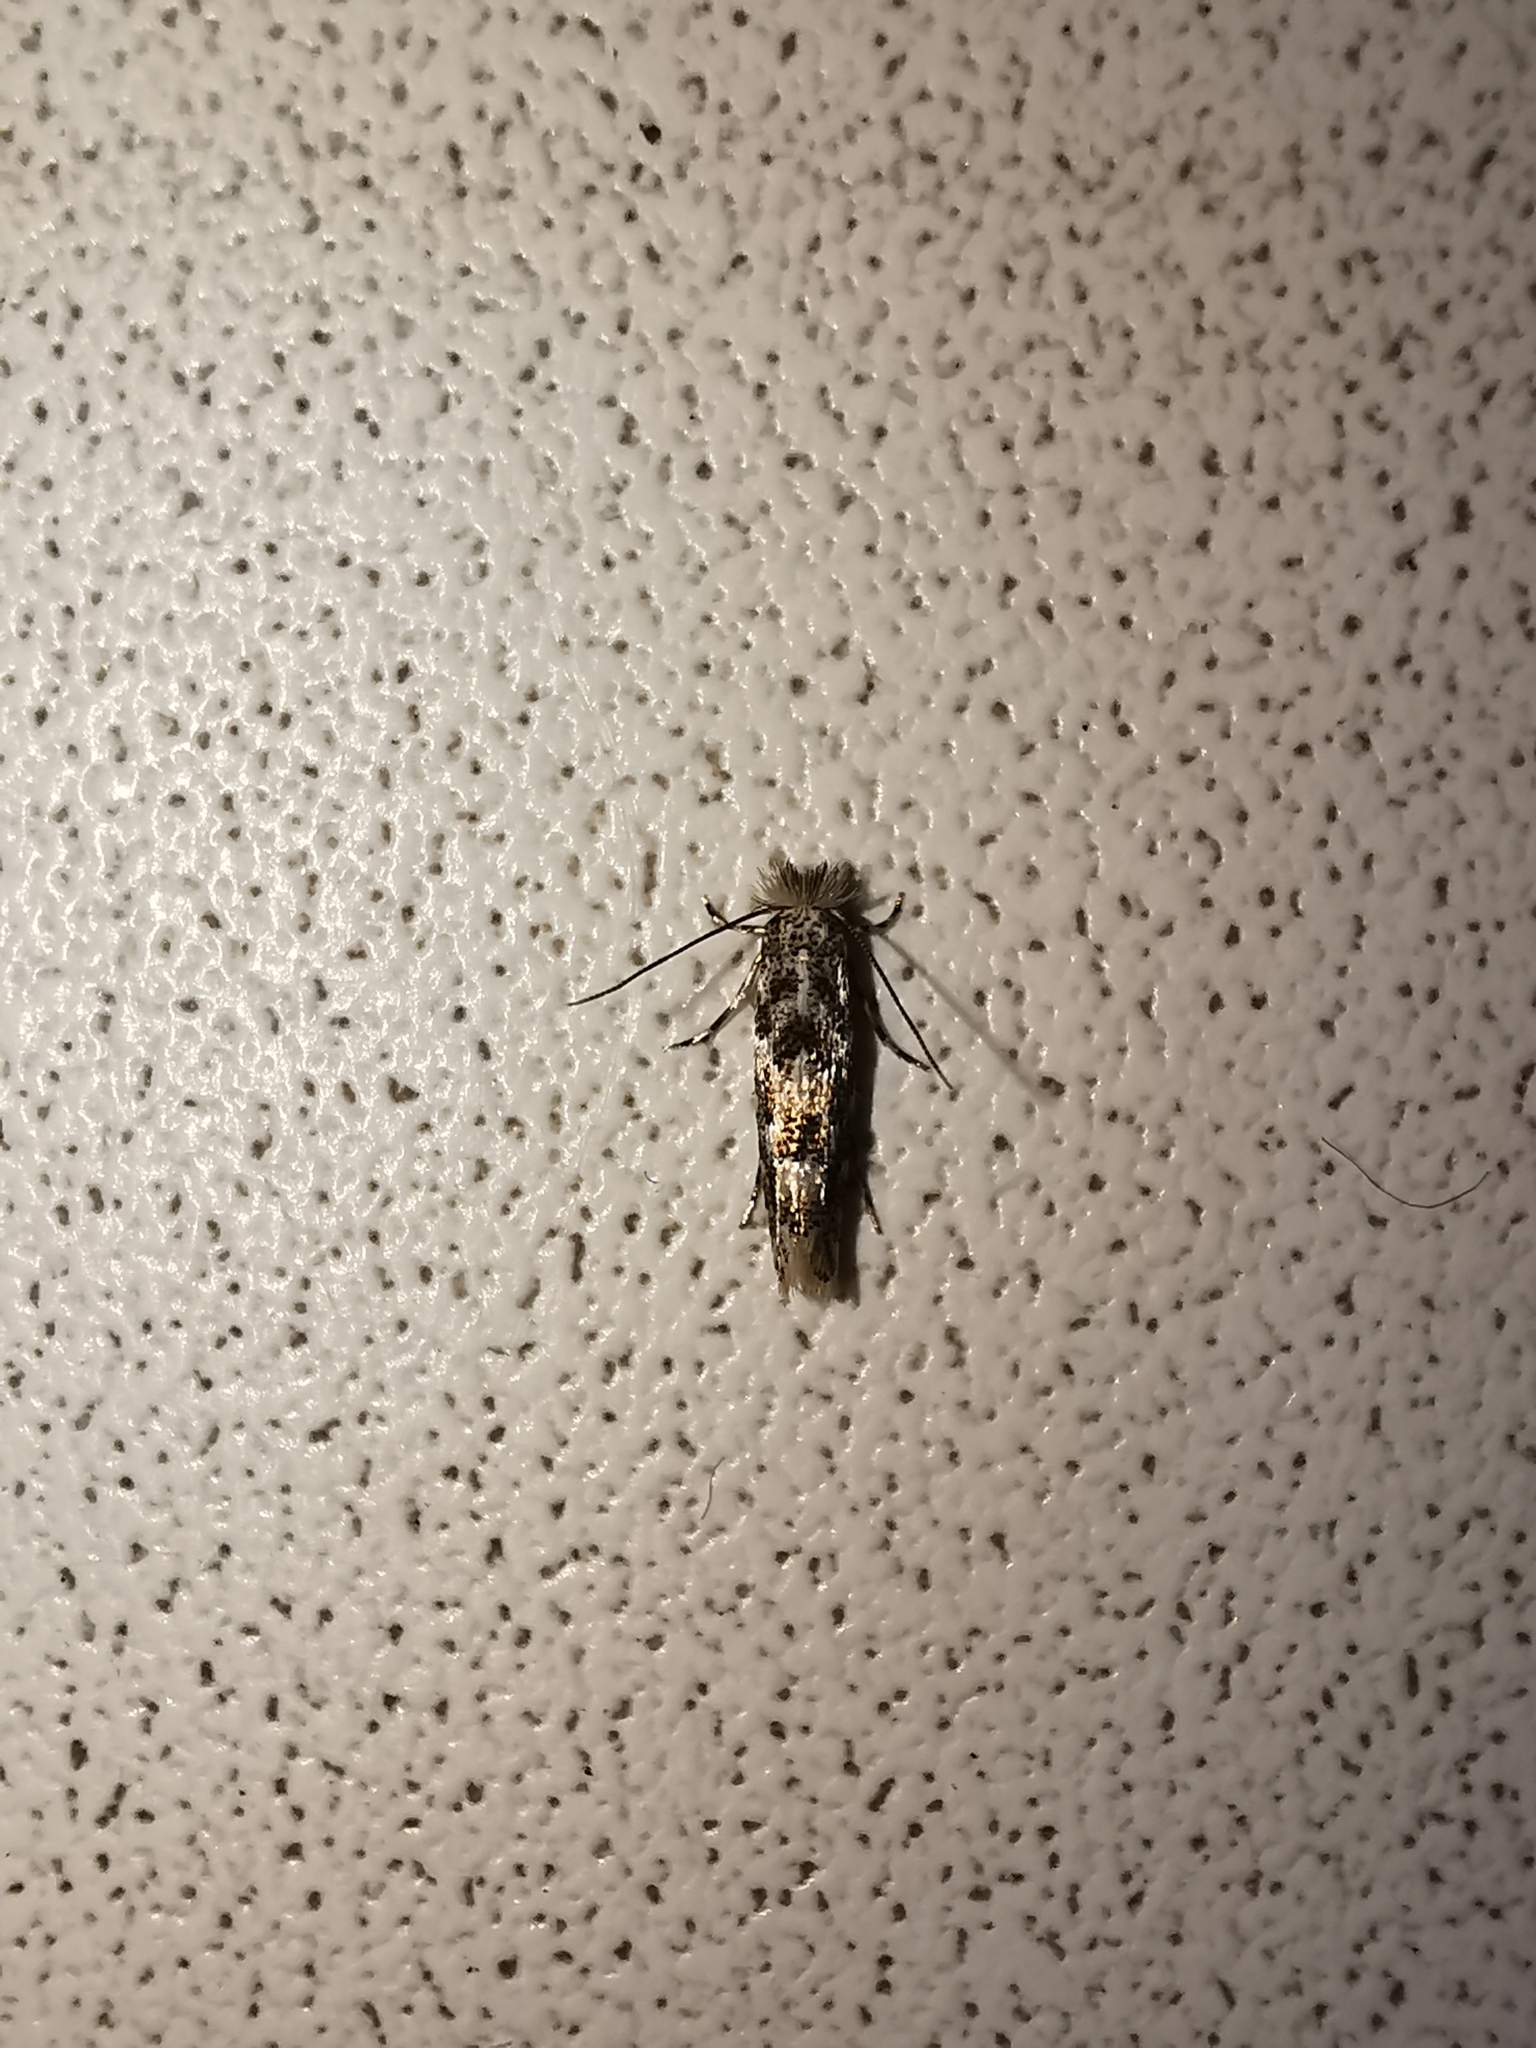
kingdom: Animalia
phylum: Arthropoda
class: Insecta
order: Lepidoptera
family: Gracillariidae
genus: Phyllonorycter
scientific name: Phyllonorycter populifoliella
